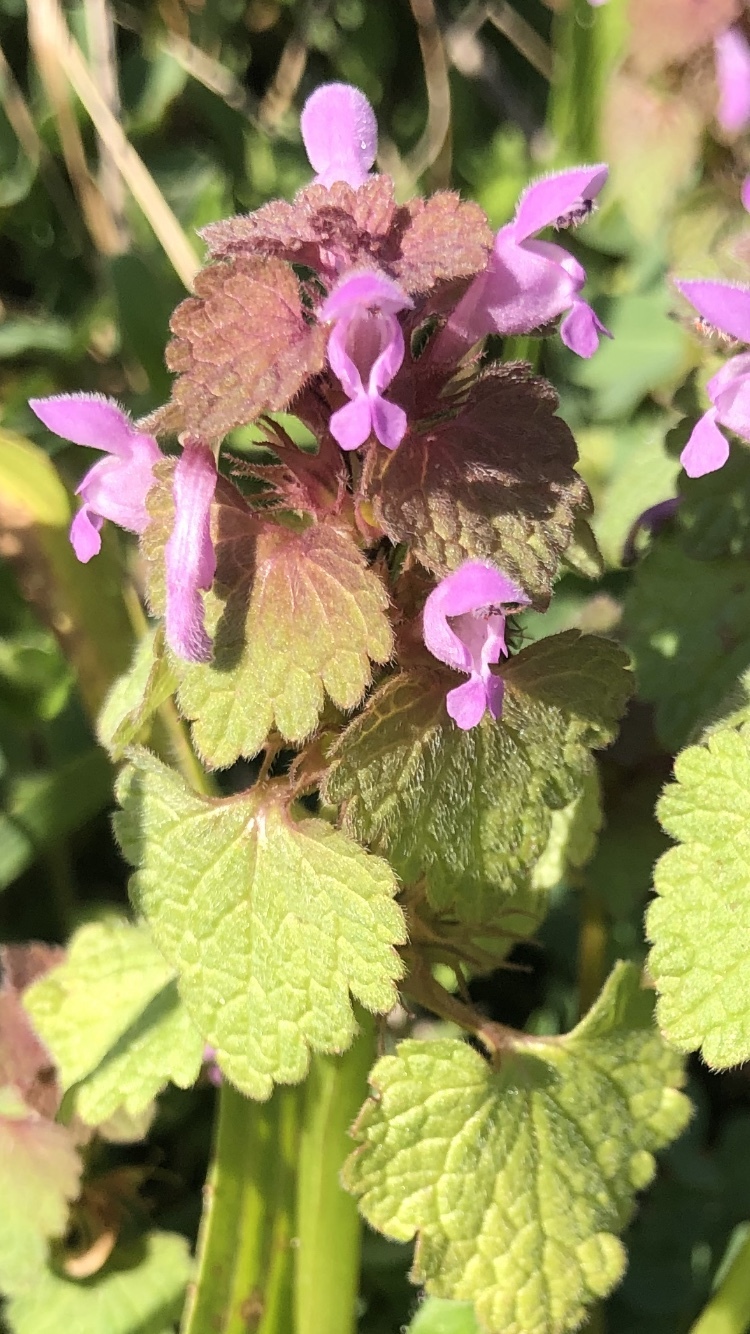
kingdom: Plantae
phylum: Tracheophyta
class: Magnoliopsida
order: Lamiales
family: Lamiaceae
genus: Lamium
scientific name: Lamium purpureum
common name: Red dead-nettle
